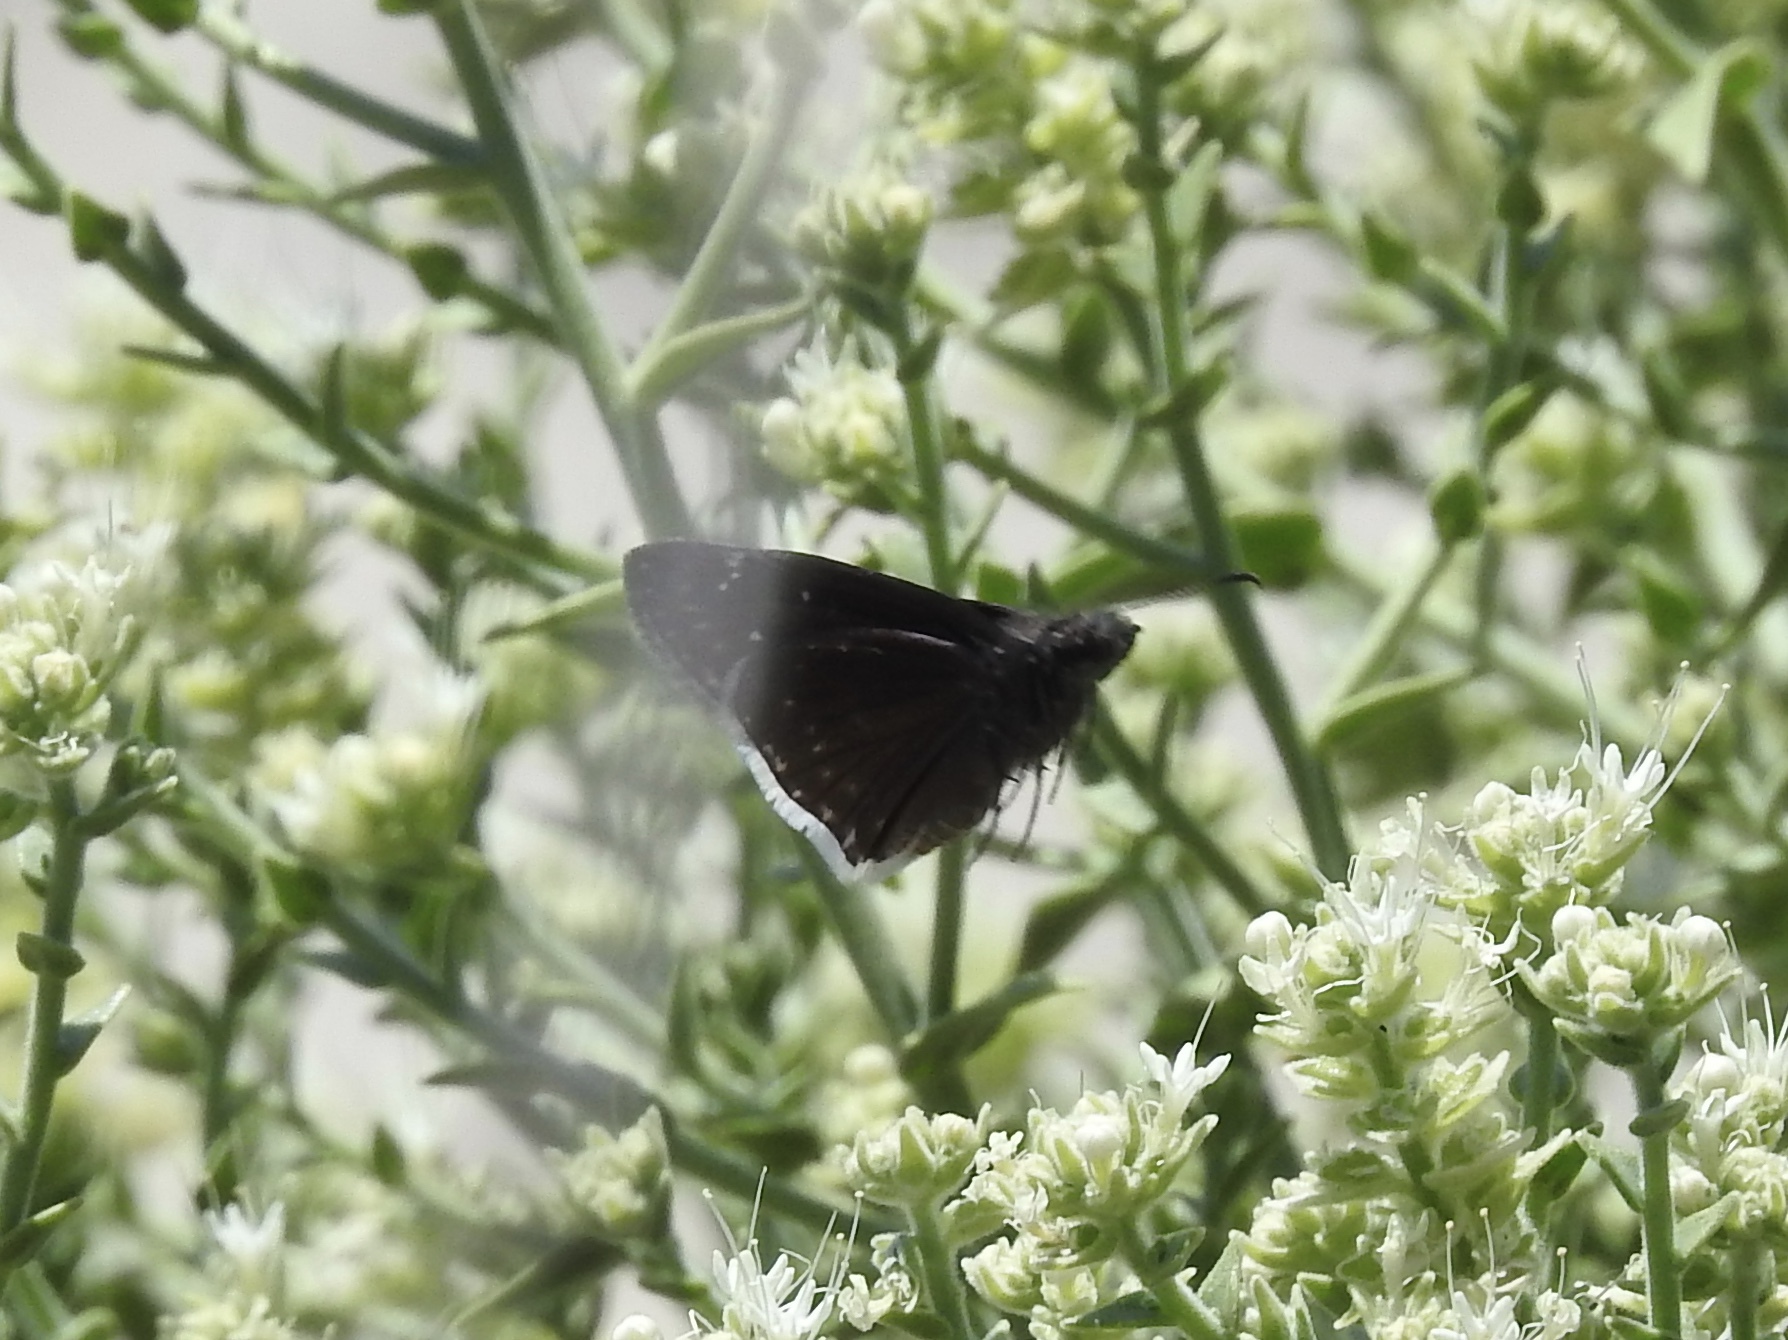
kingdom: Animalia
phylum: Arthropoda
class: Insecta
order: Lepidoptera
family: Hesperiidae
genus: Erynnis
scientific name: Erynnis funeralis
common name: Funereal duskywing
